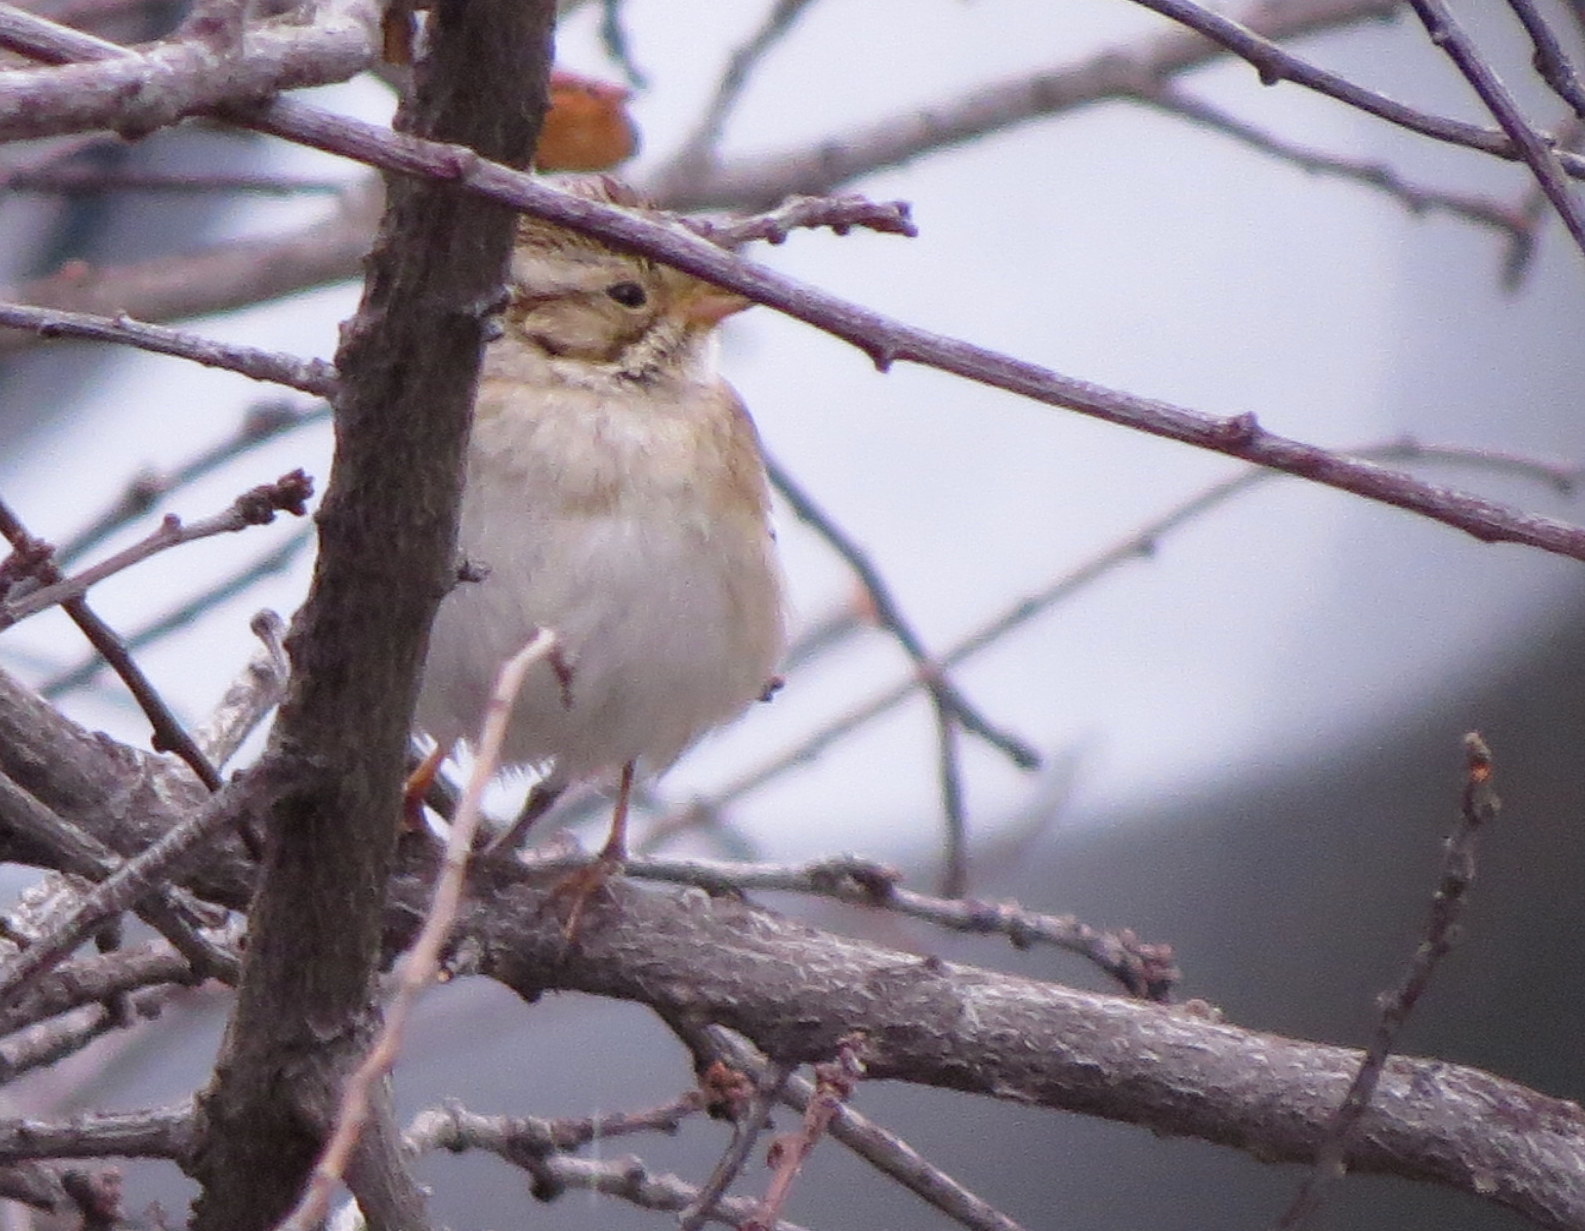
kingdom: Animalia
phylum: Chordata
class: Aves
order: Passeriformes
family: Passerellidae
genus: Spizella
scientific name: Spizella pallida
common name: Clay-colored sparrow
